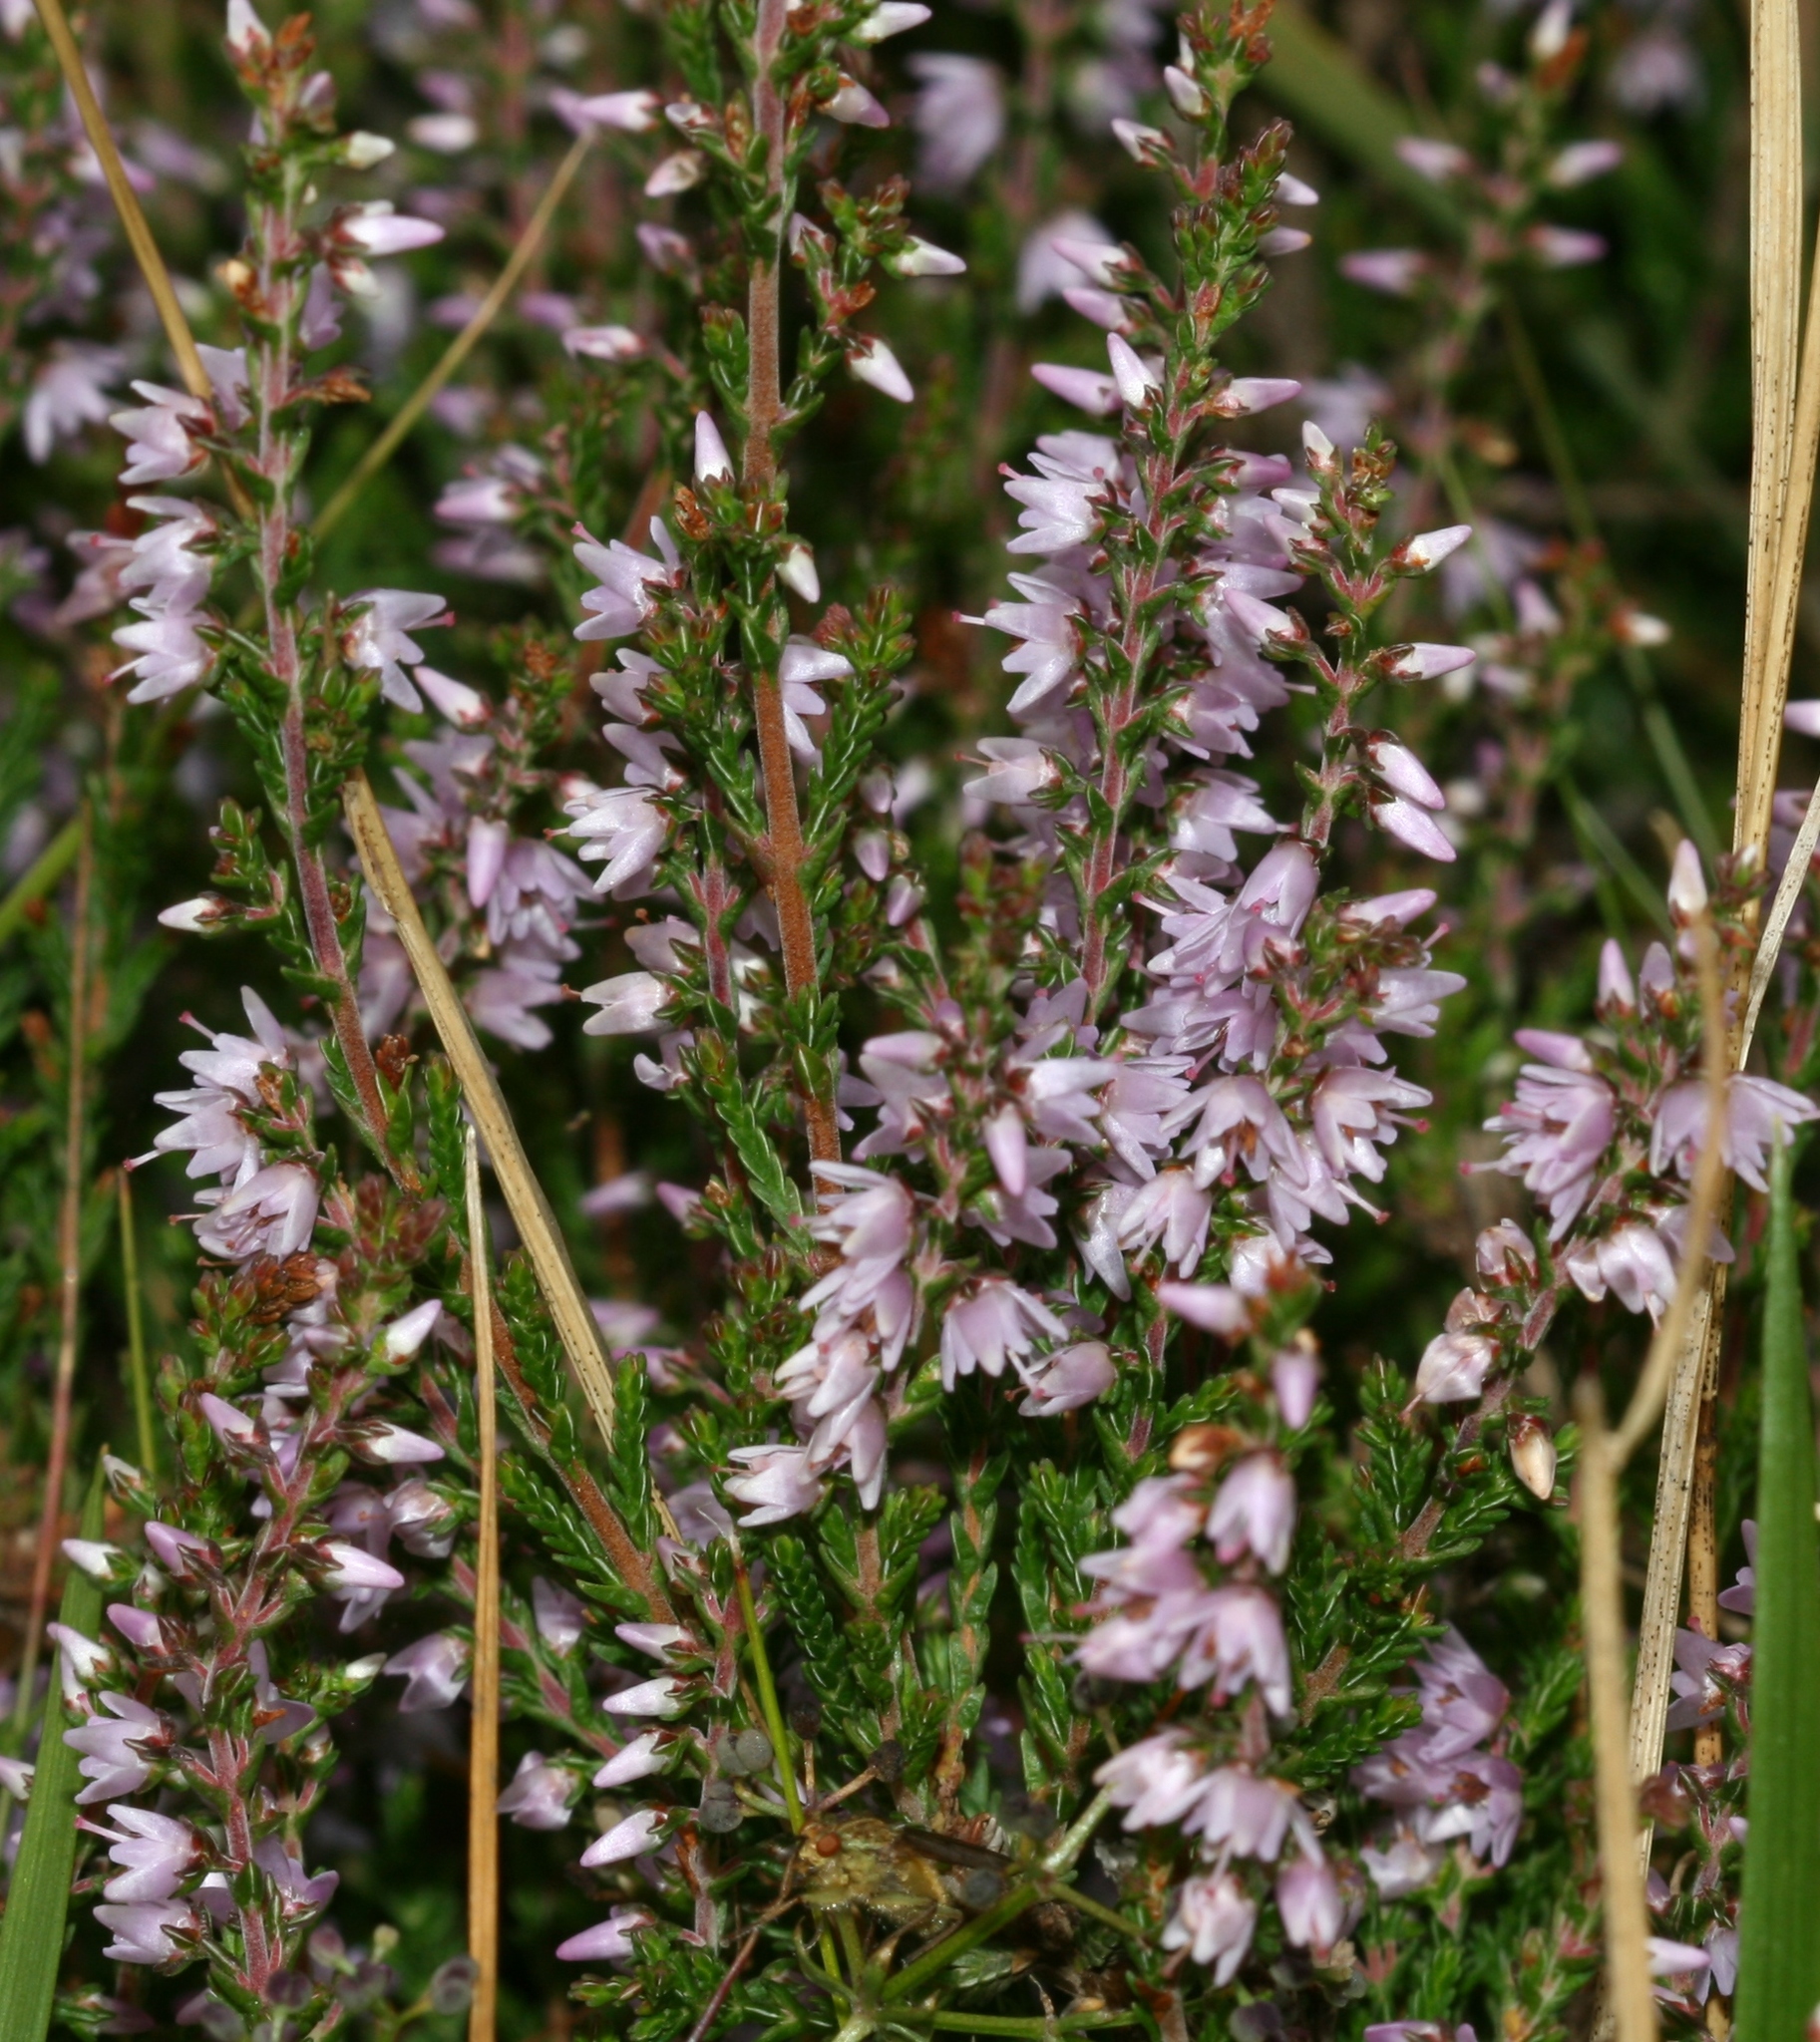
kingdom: Plantae
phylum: Tracheophyta
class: Magnoliopsida
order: Ericales
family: Ericaceae
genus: Calluna
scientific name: Calluna vulgaris
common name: Heather
